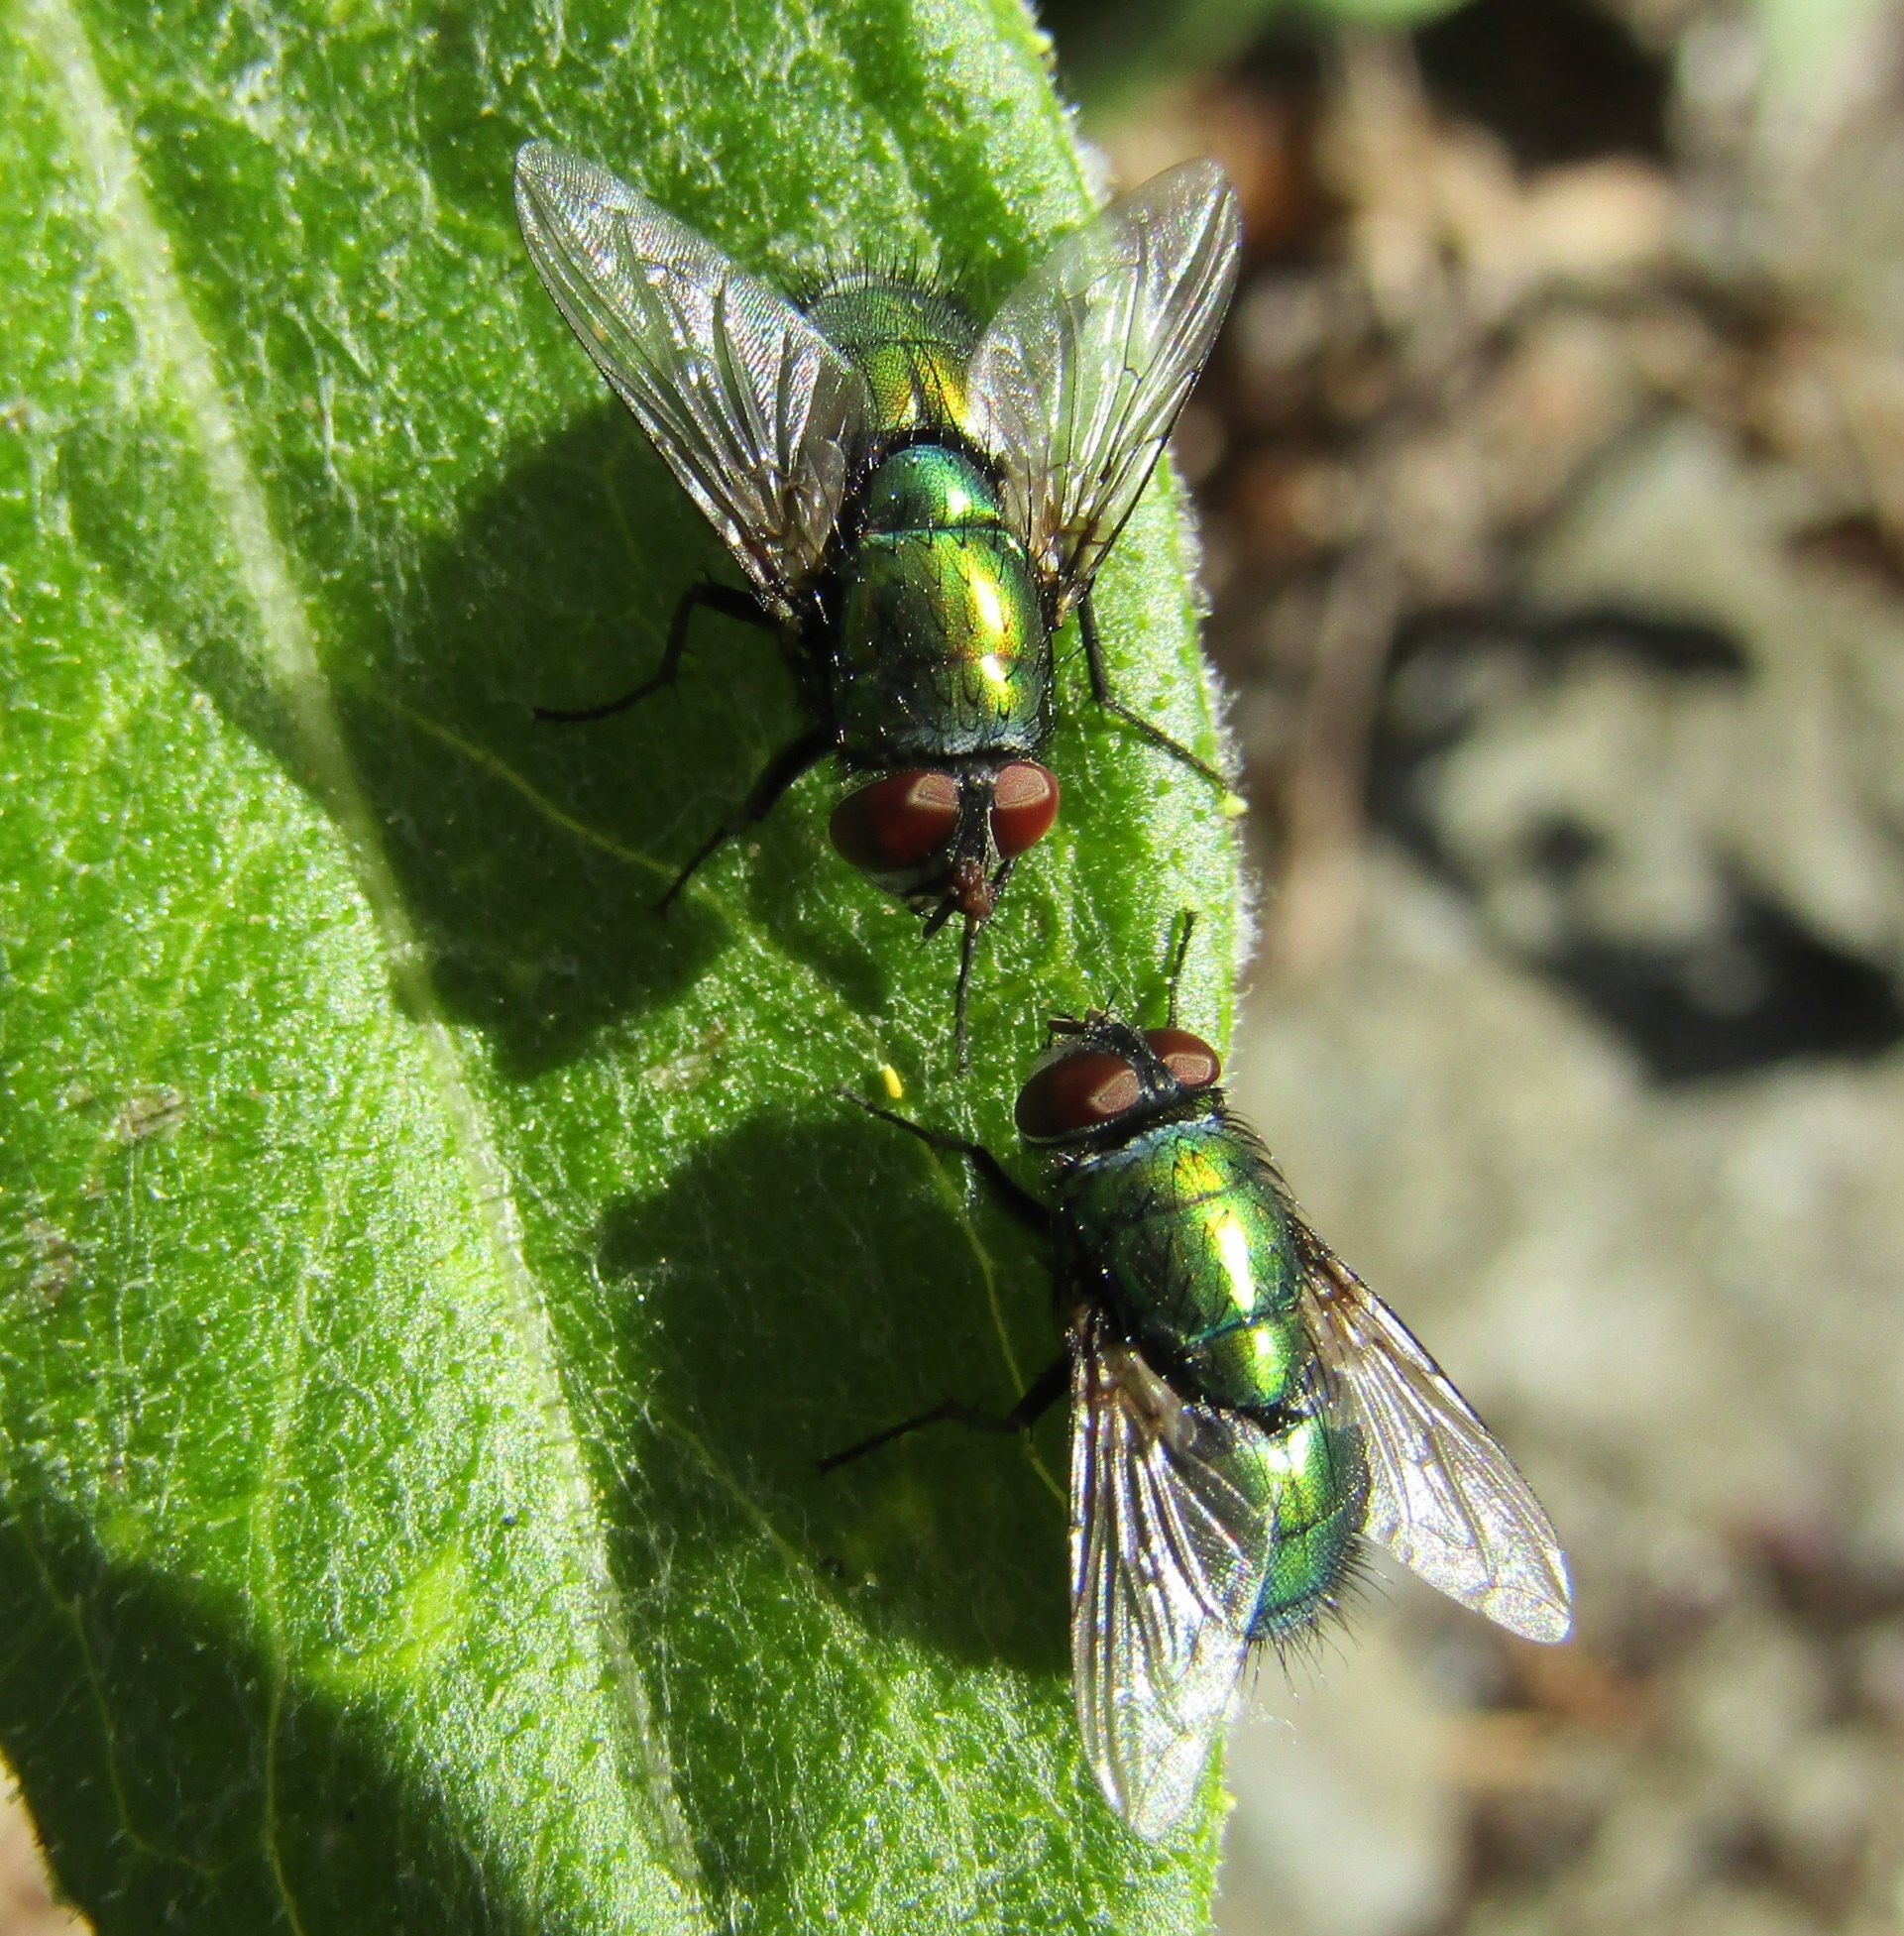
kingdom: Animalia
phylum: Arthropoda
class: Insecta
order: Diptera
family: Calliphoridae
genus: Lucilia
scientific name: Lucilia sericata
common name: Blow fly
